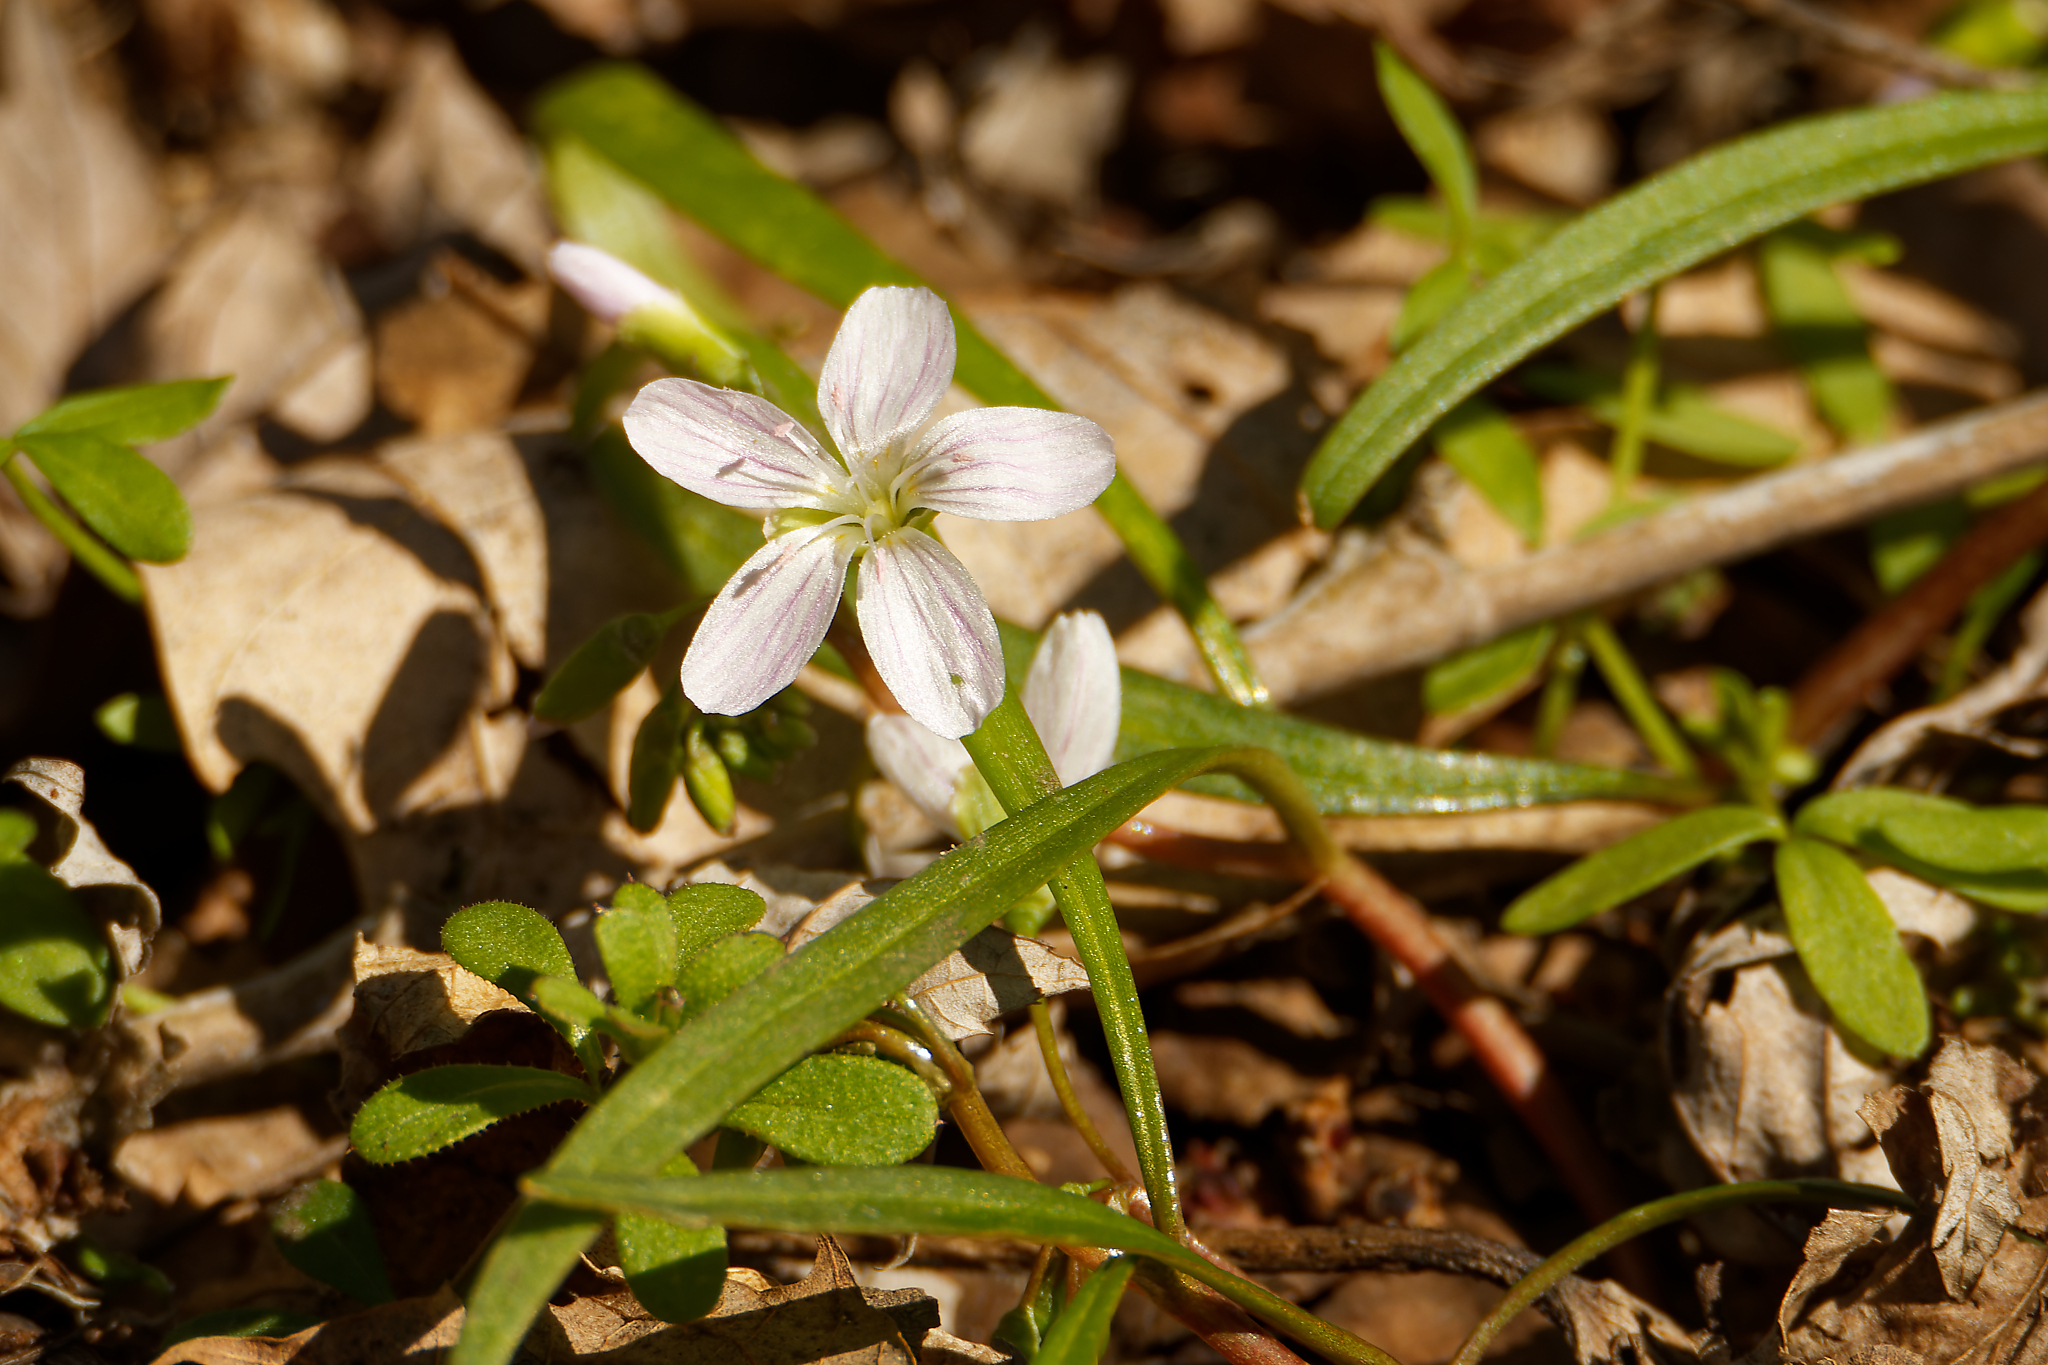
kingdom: Plantae
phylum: Tracheophyta
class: Magnoliopsida
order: Caryophyllales
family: Montiaceae
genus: Claytonia
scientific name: Claytonia virginica
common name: Virginia springbeauty
